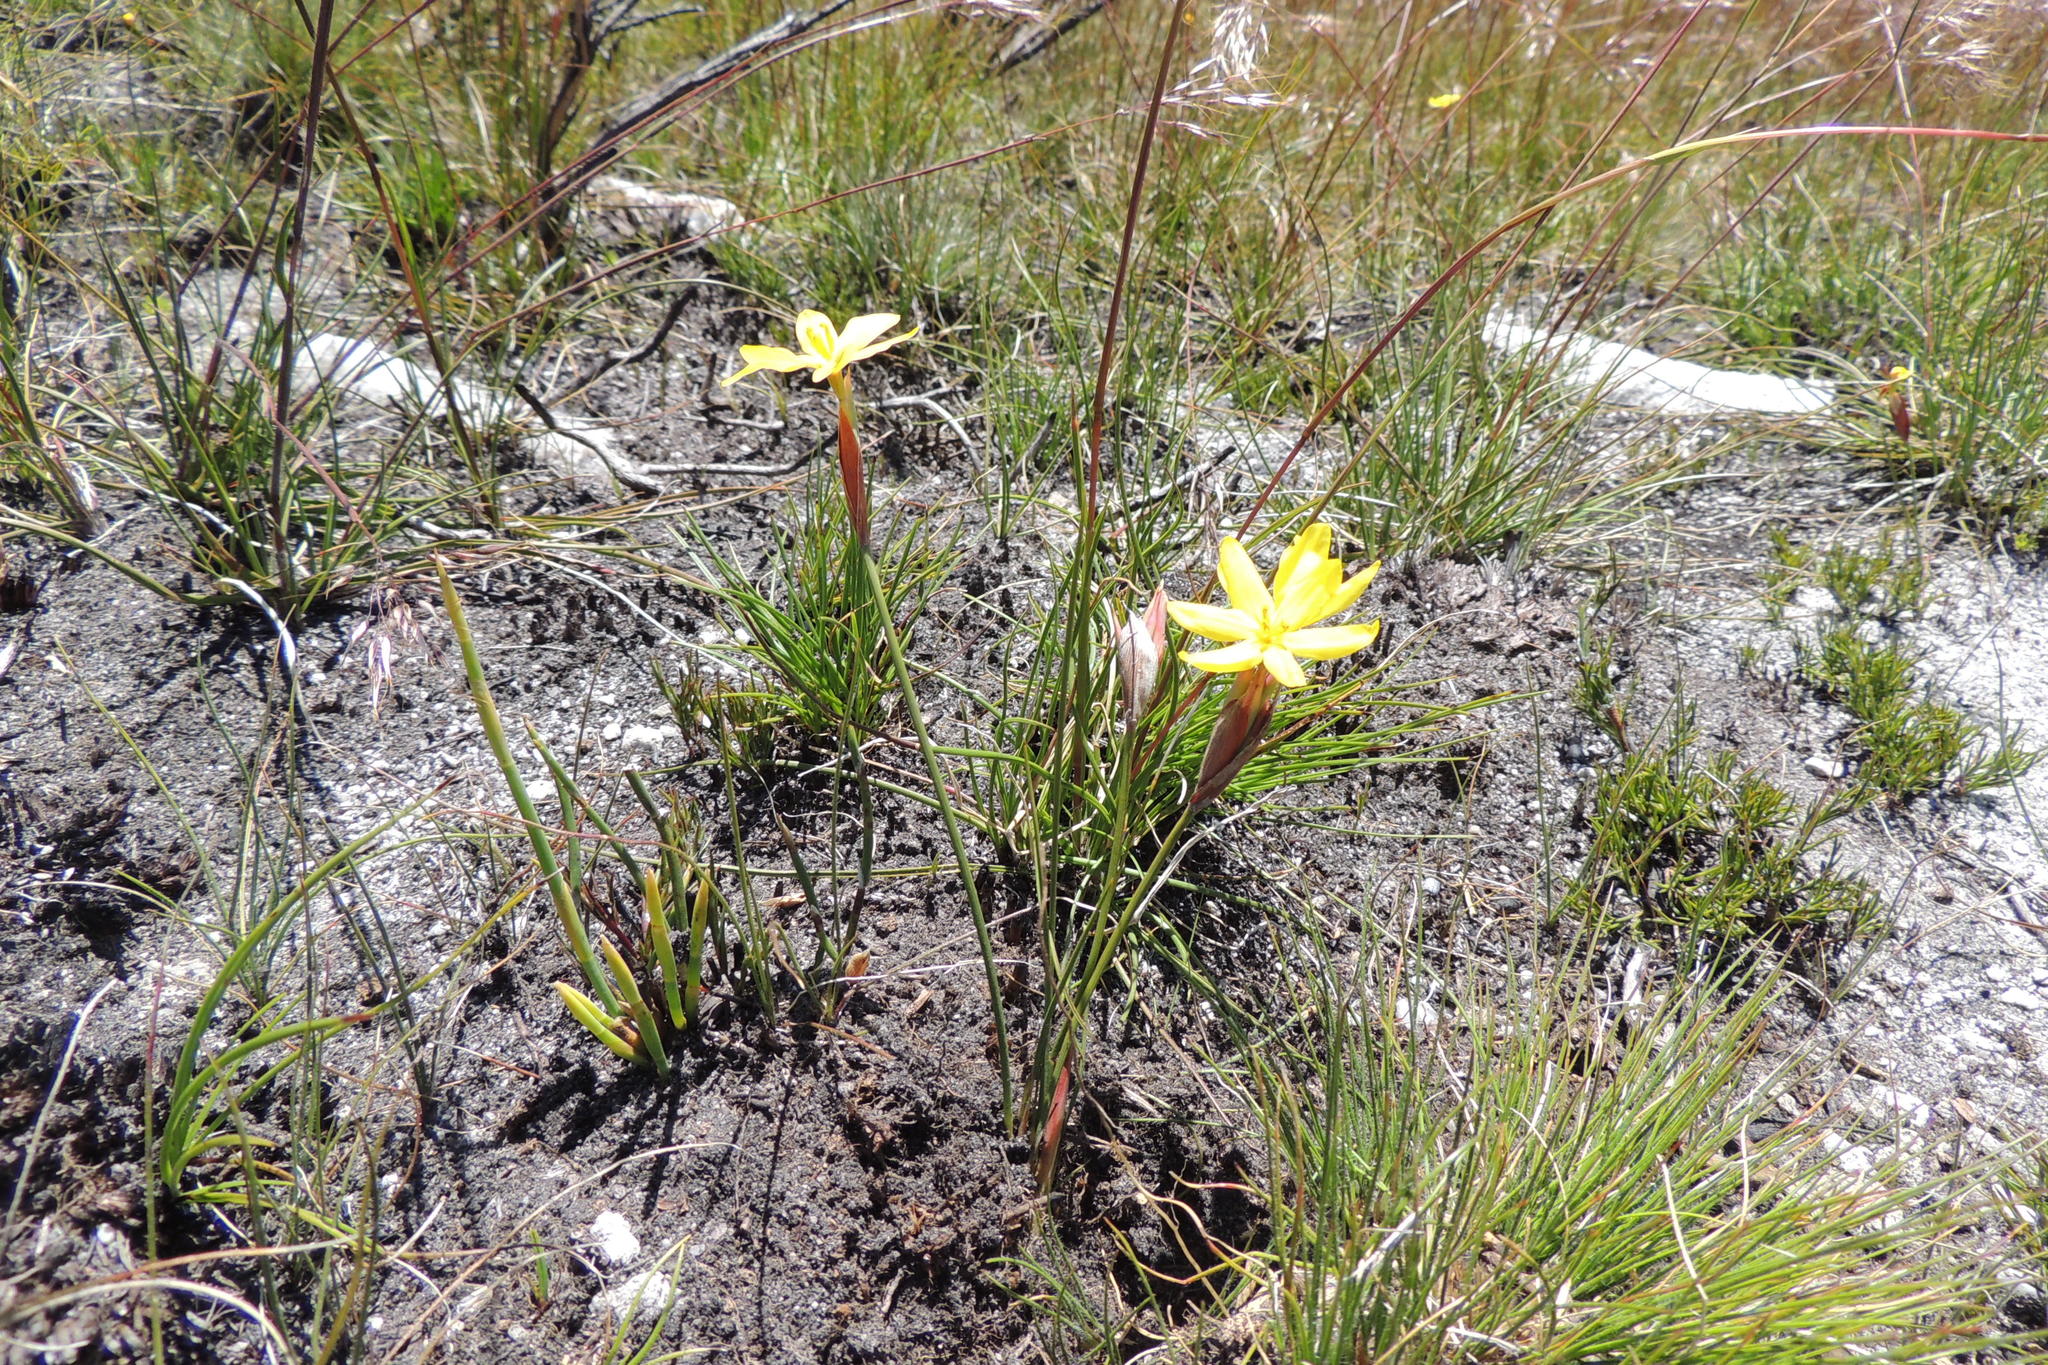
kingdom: Plantae
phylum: Tracheophyta
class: Liliopsida
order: Asparagales
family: Iridaceae
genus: Bobartia
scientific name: Bobartia parva
